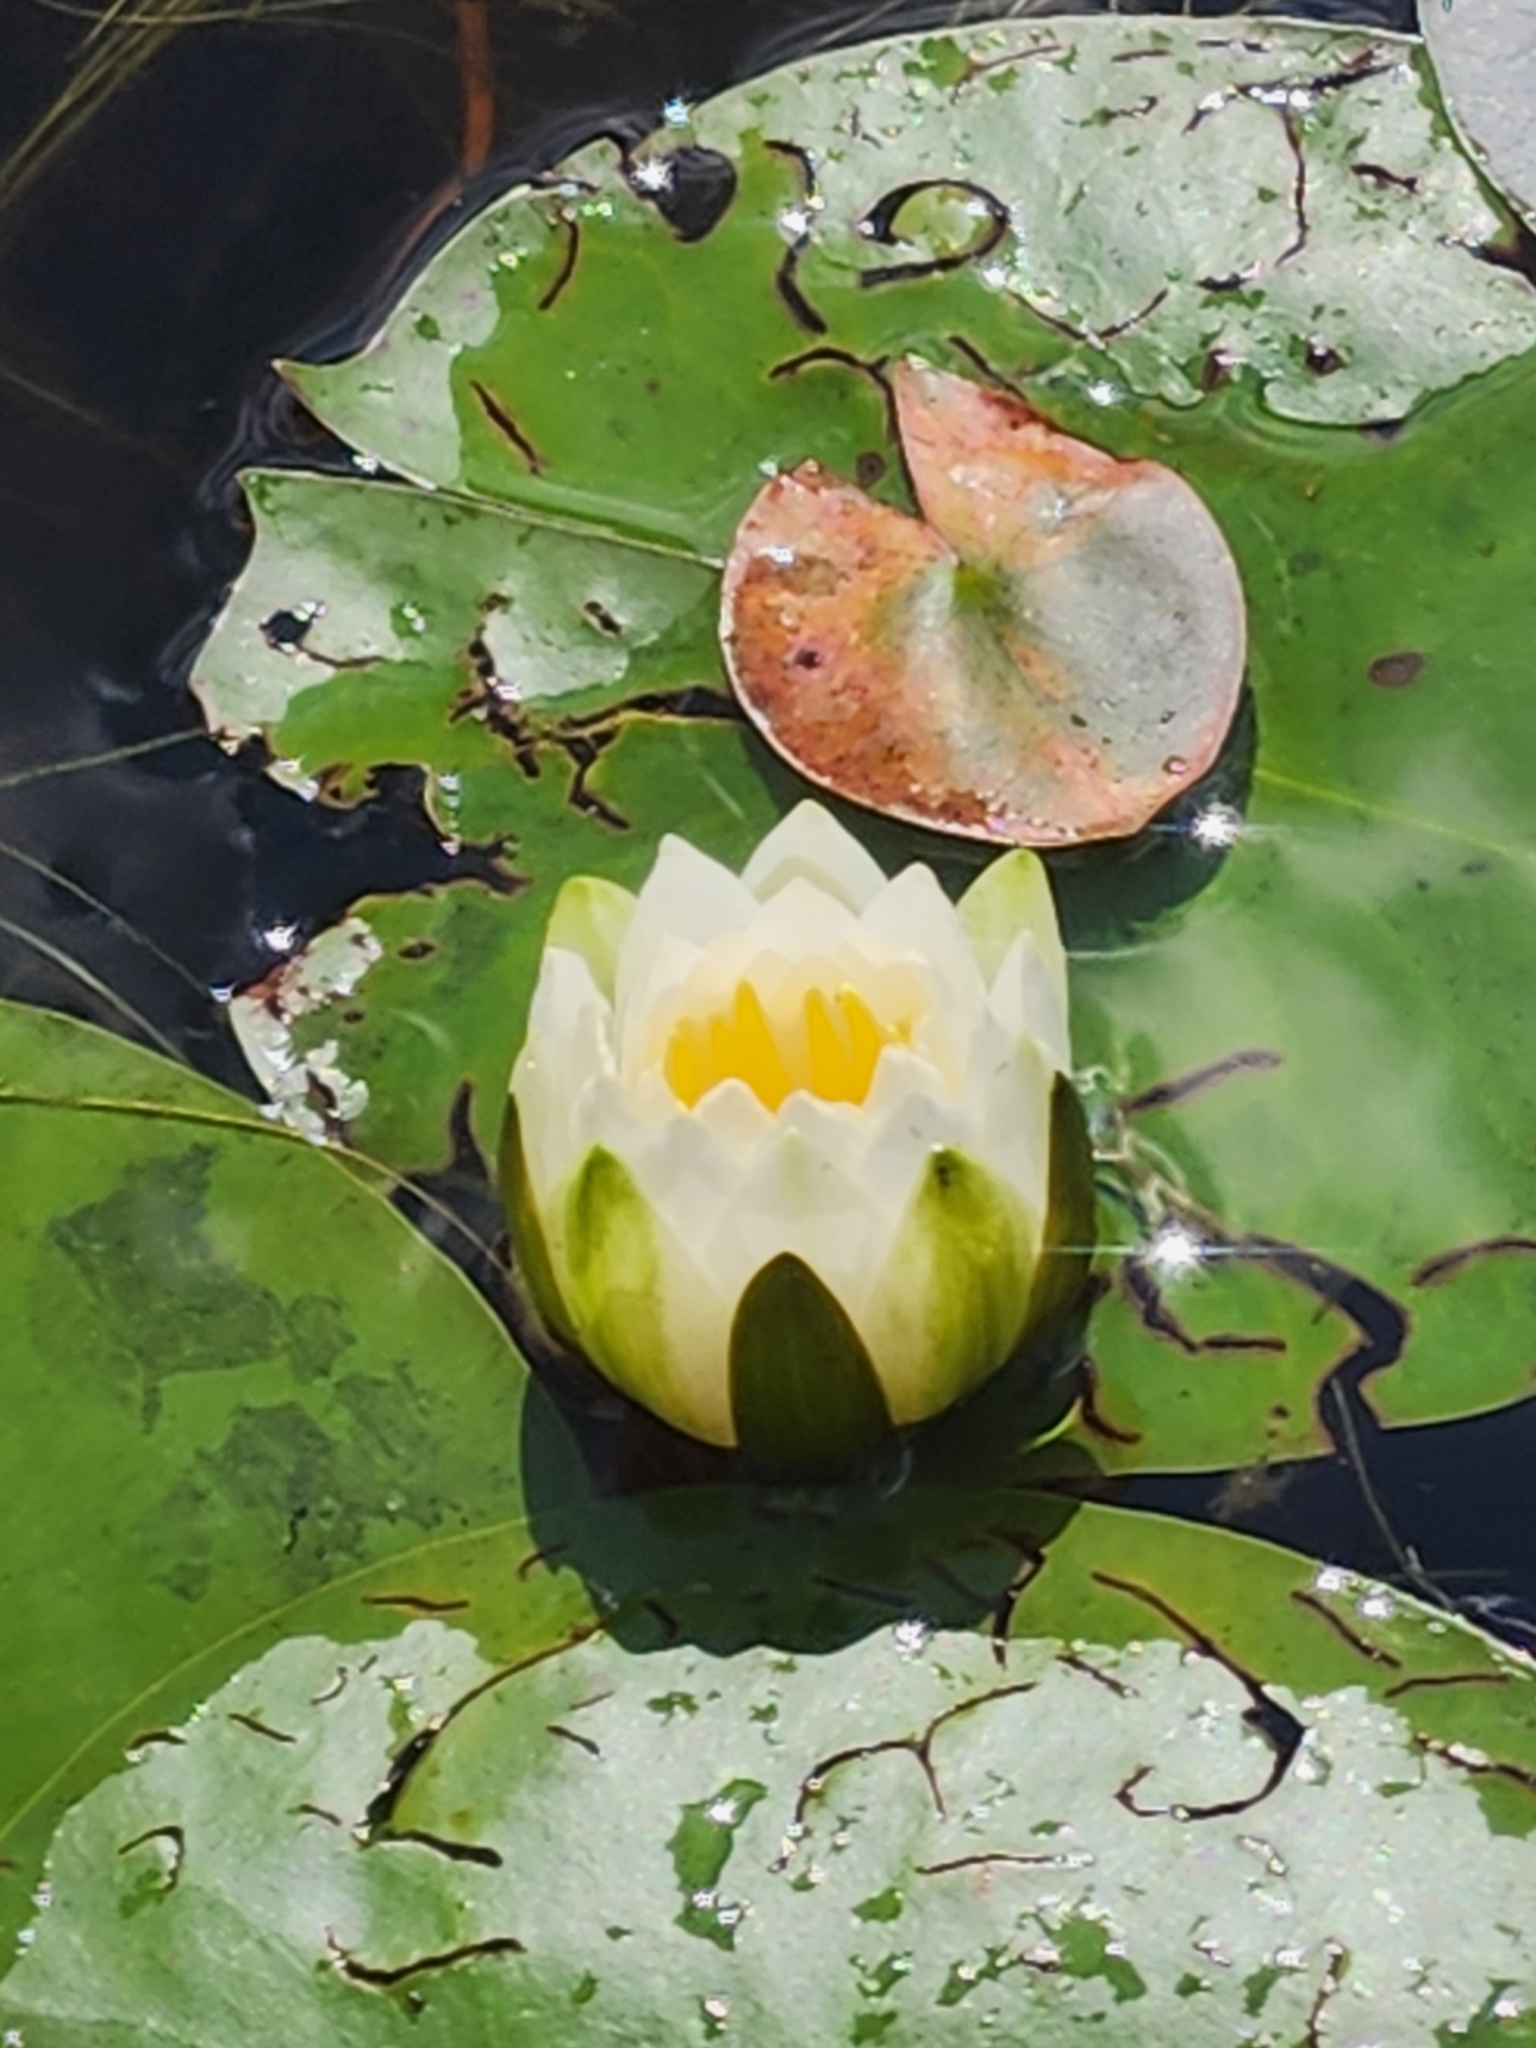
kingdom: Plantae
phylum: Tracheophyta
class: Magnoliopsida
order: Nymphaeales
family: Nymphaeaceae
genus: Nymphaea
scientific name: Nymphaea odorata
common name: Fragrant water-lily
